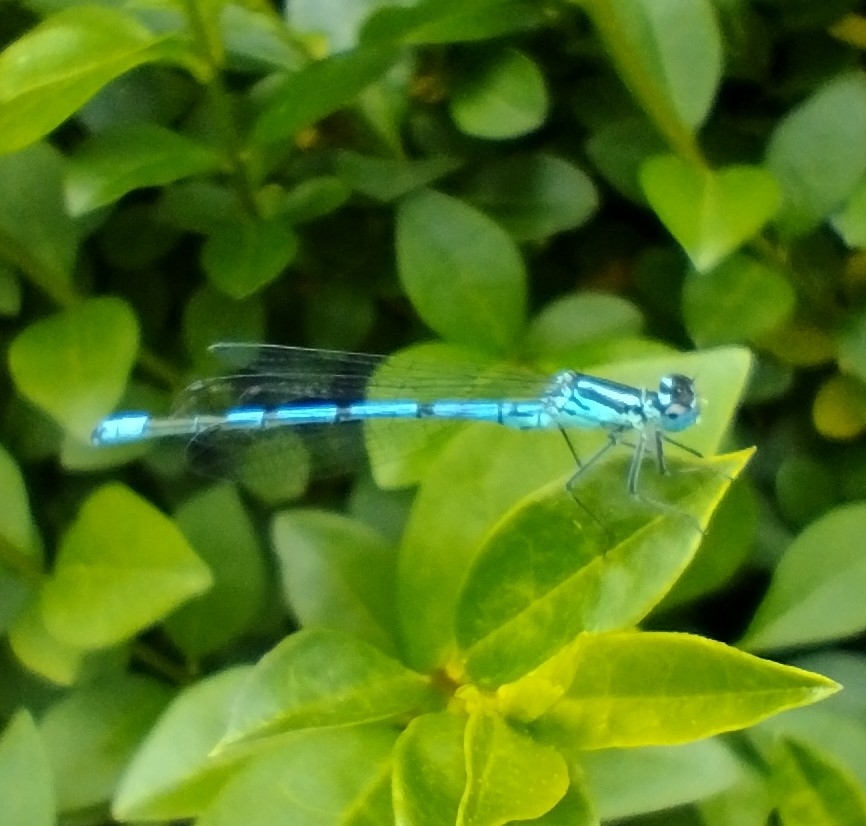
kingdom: Animalia
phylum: Arthropoda
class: Insecta
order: Odonata
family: Coenagrionidae
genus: Coenagrion
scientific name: Coenagrion puella
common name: Azure damselfly
